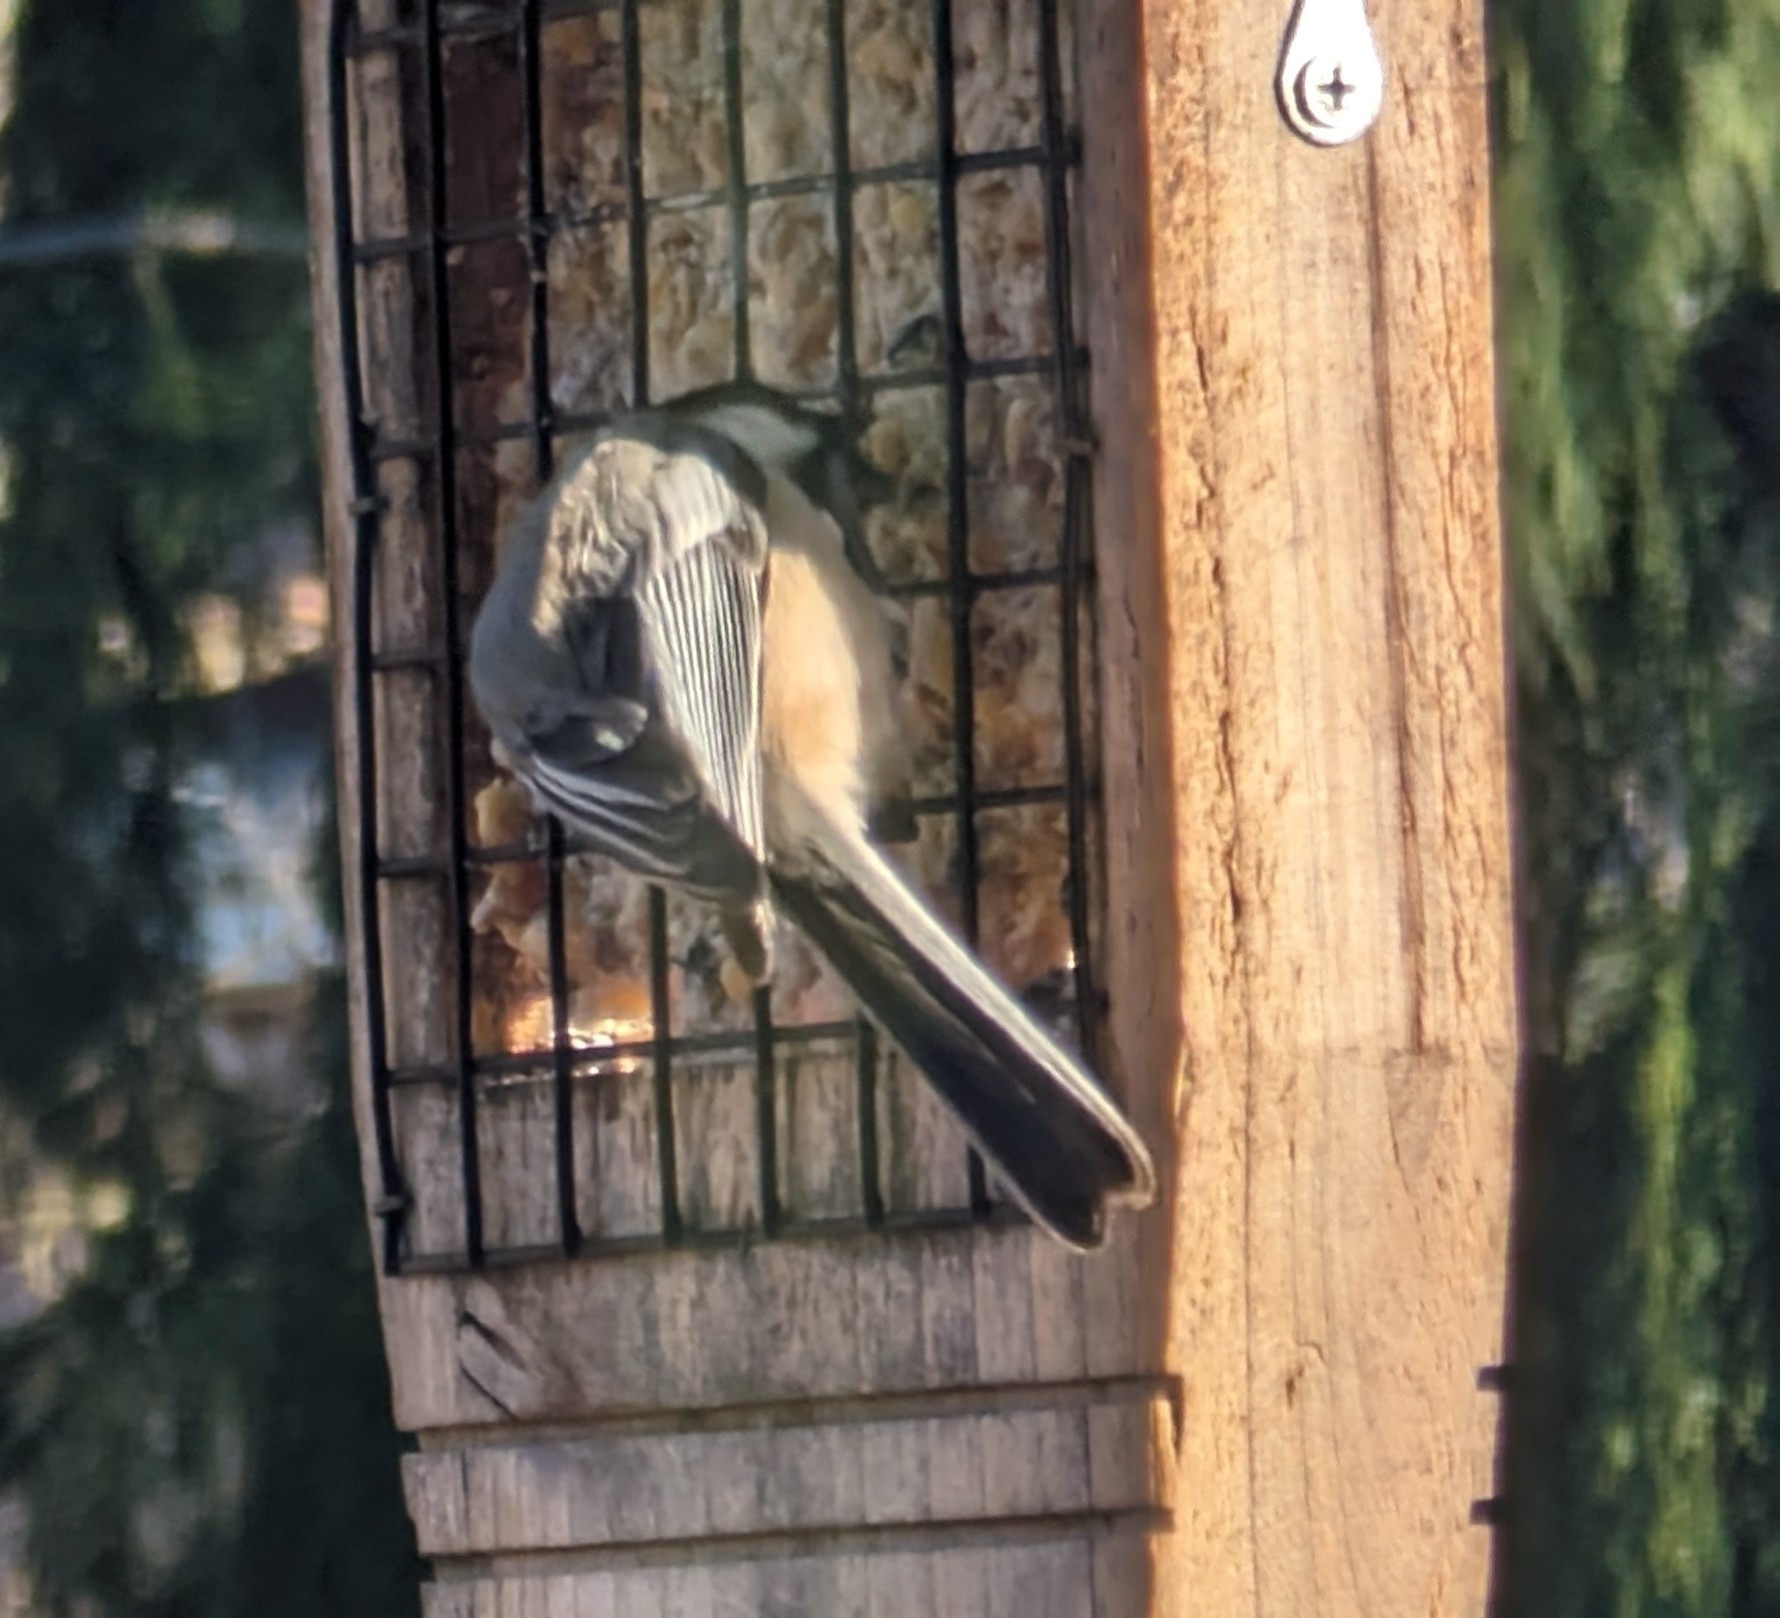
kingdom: Animalia
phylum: Chordata
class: Aves
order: Passeriformes
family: Paridae
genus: Poecile
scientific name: Poecile atricapillus
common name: Black-capped chickadee
